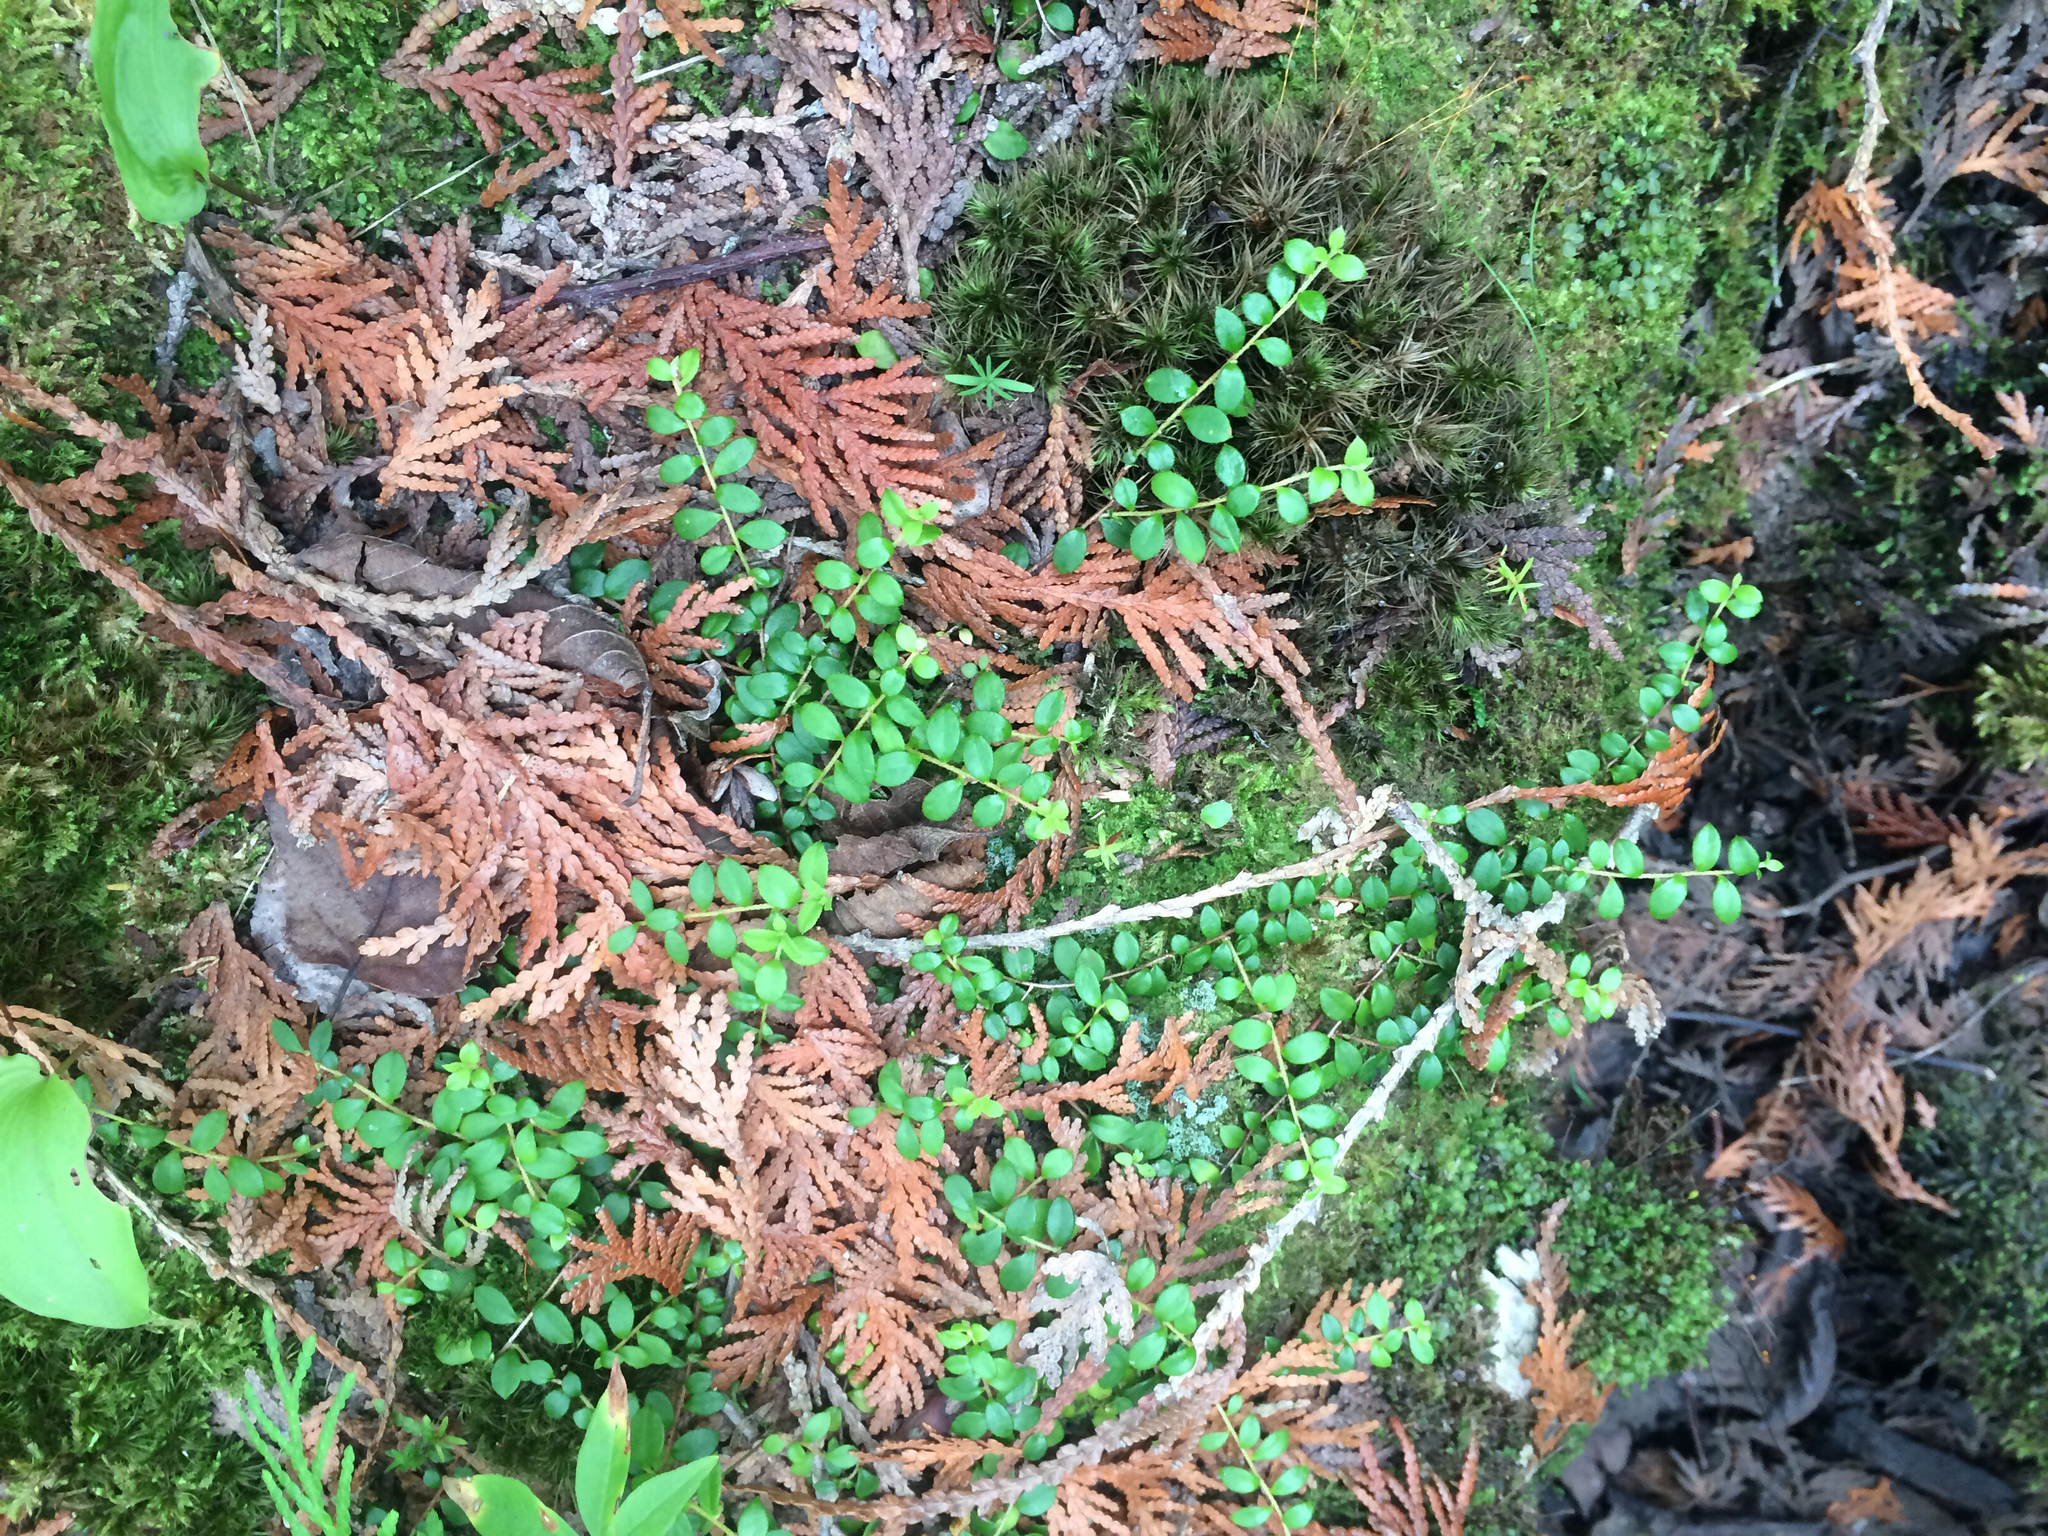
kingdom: Plantae
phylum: Tracheophyta
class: Magnoliopsida
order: Ericales
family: Ericaceae
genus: Gaultheria
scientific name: Gaultheria hispidula
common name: Cancer wintergreen
